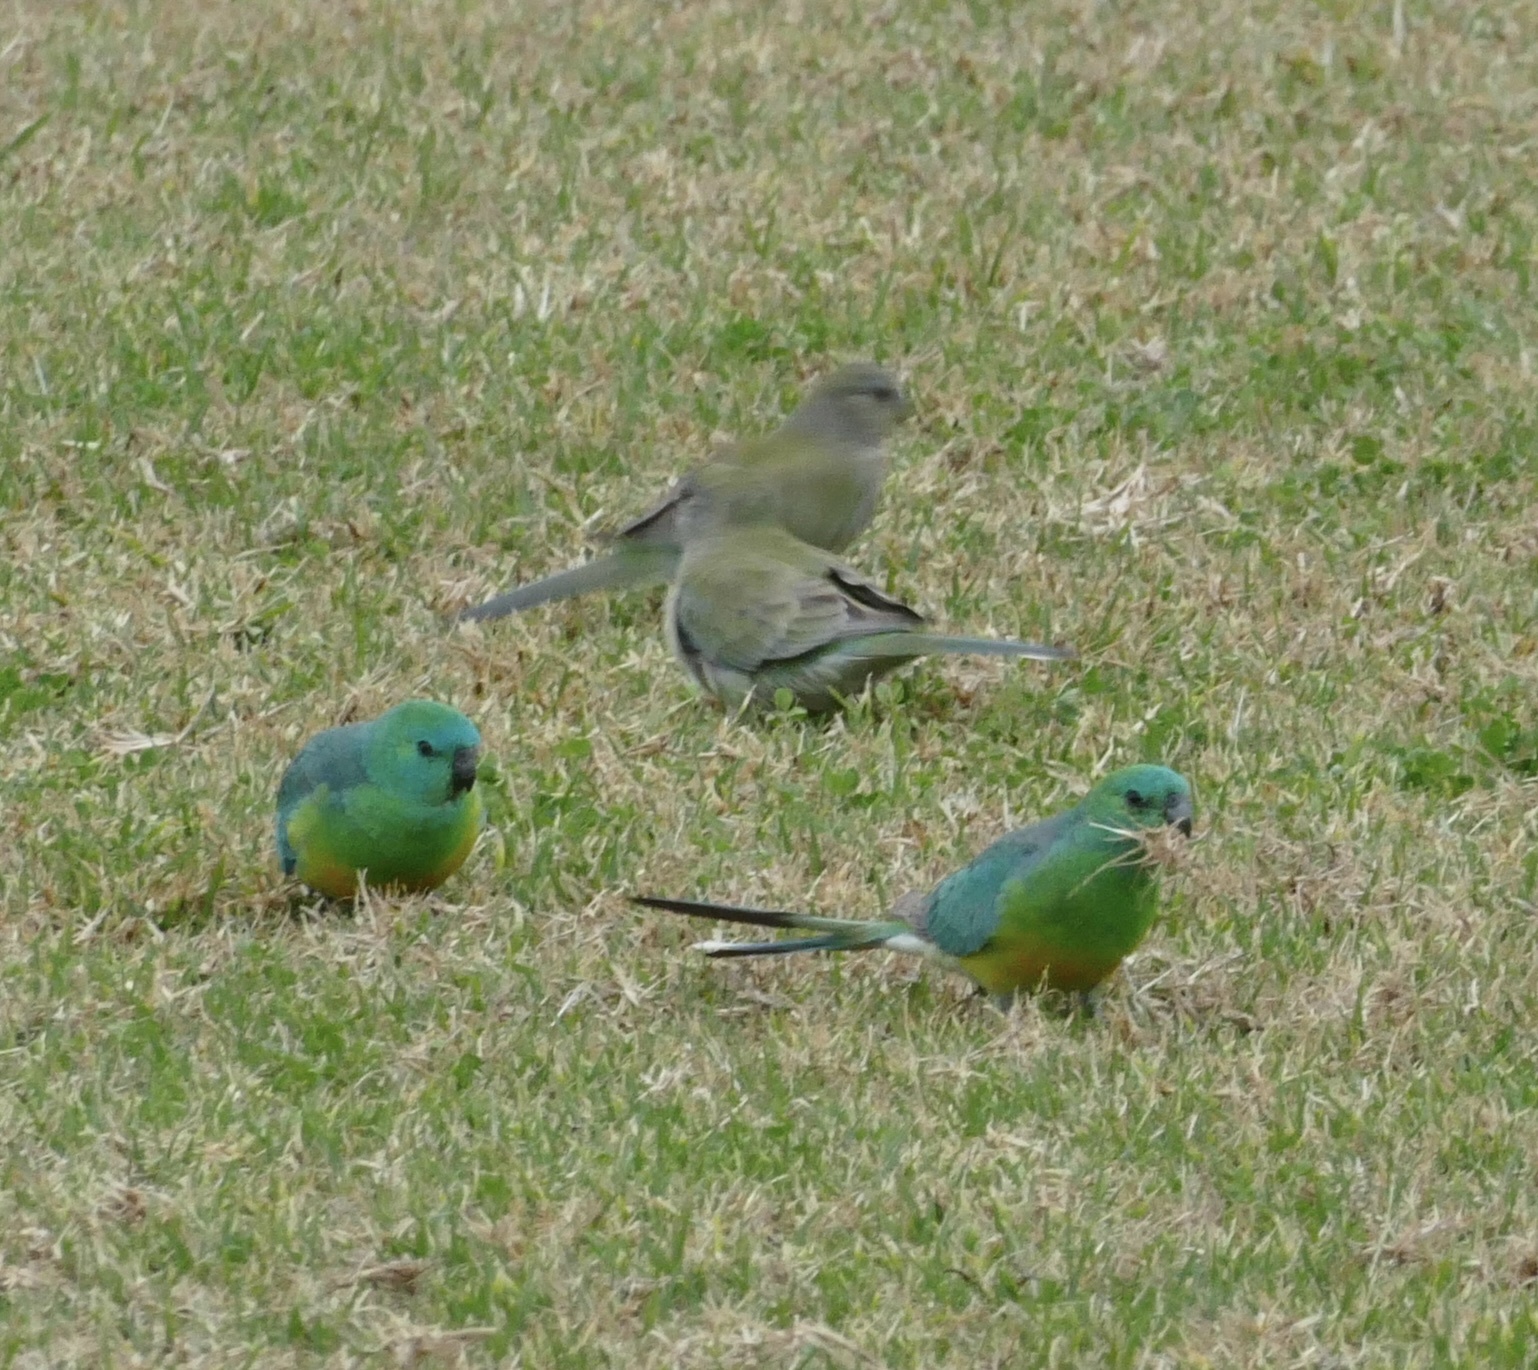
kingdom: Animalia
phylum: Chordata
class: Aves
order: Psittaciformes
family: Psittacidae
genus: Psephotus
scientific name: Psephotus haematonotus
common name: Red-rumped parrot
